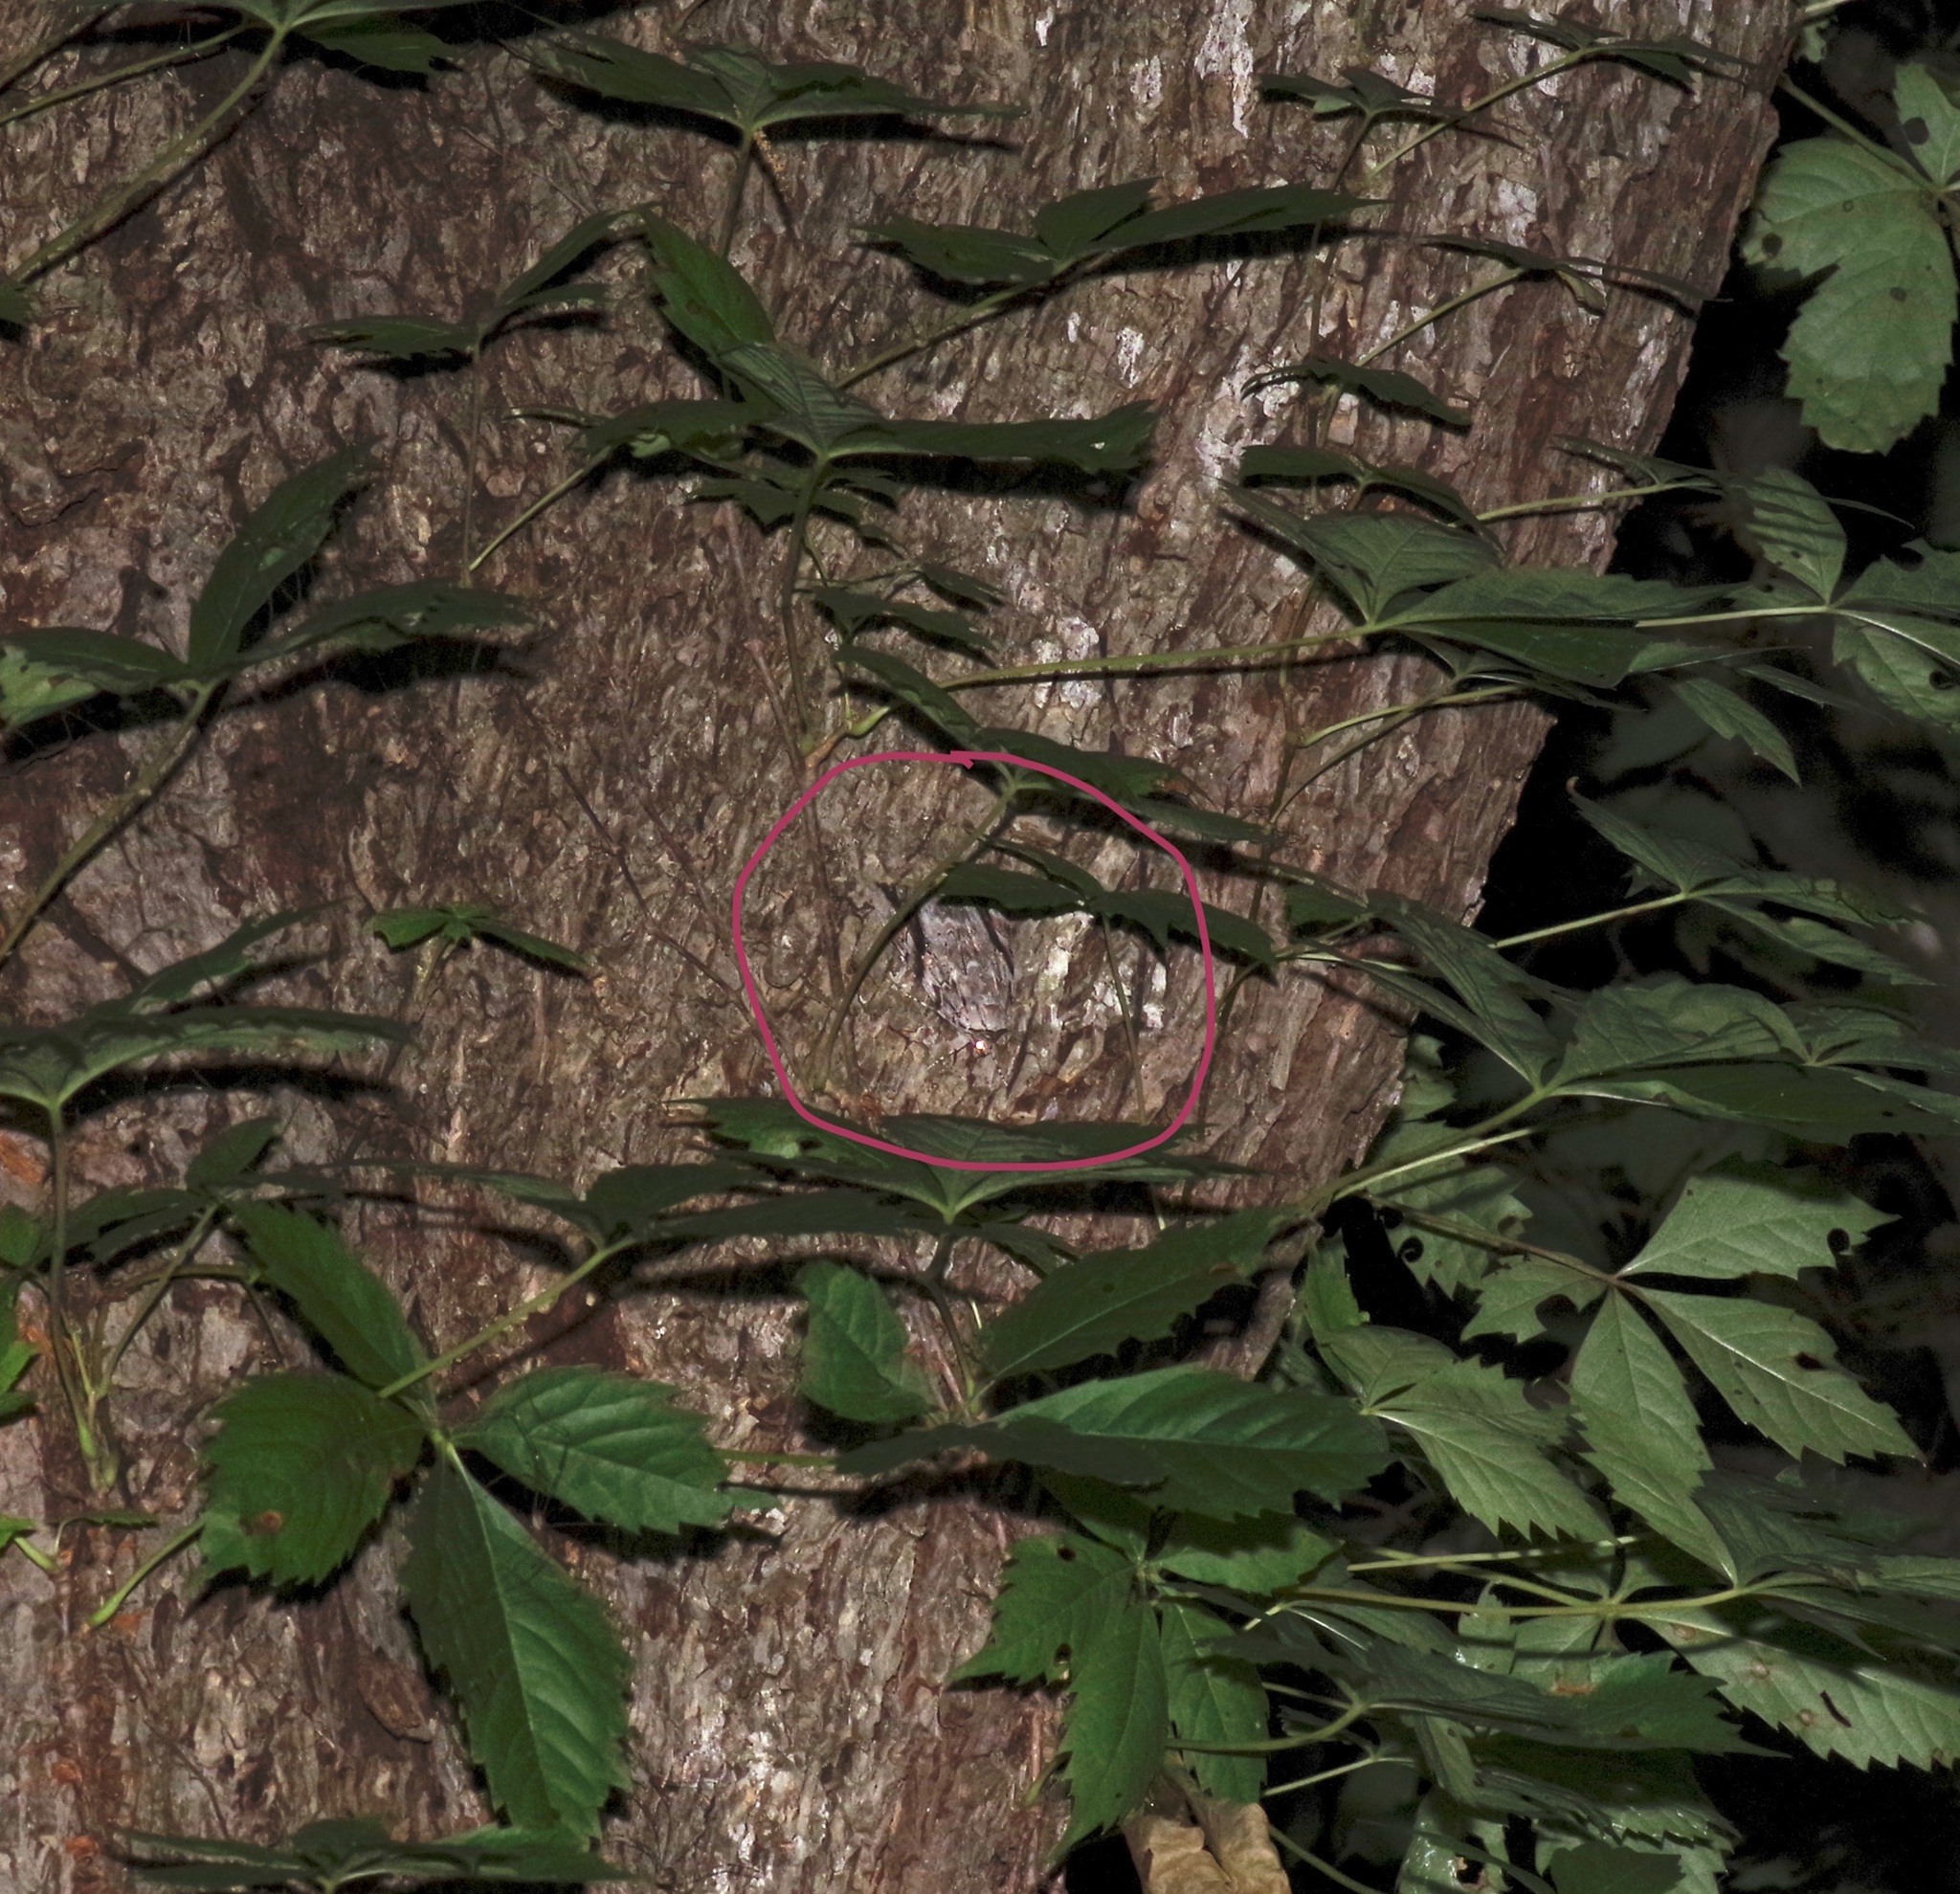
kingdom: Animalia
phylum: Arthropoda
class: Insecta
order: Lepidoptera
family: Erebidae
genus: Catocala
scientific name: Catocala maestosa
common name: Sad underwing
